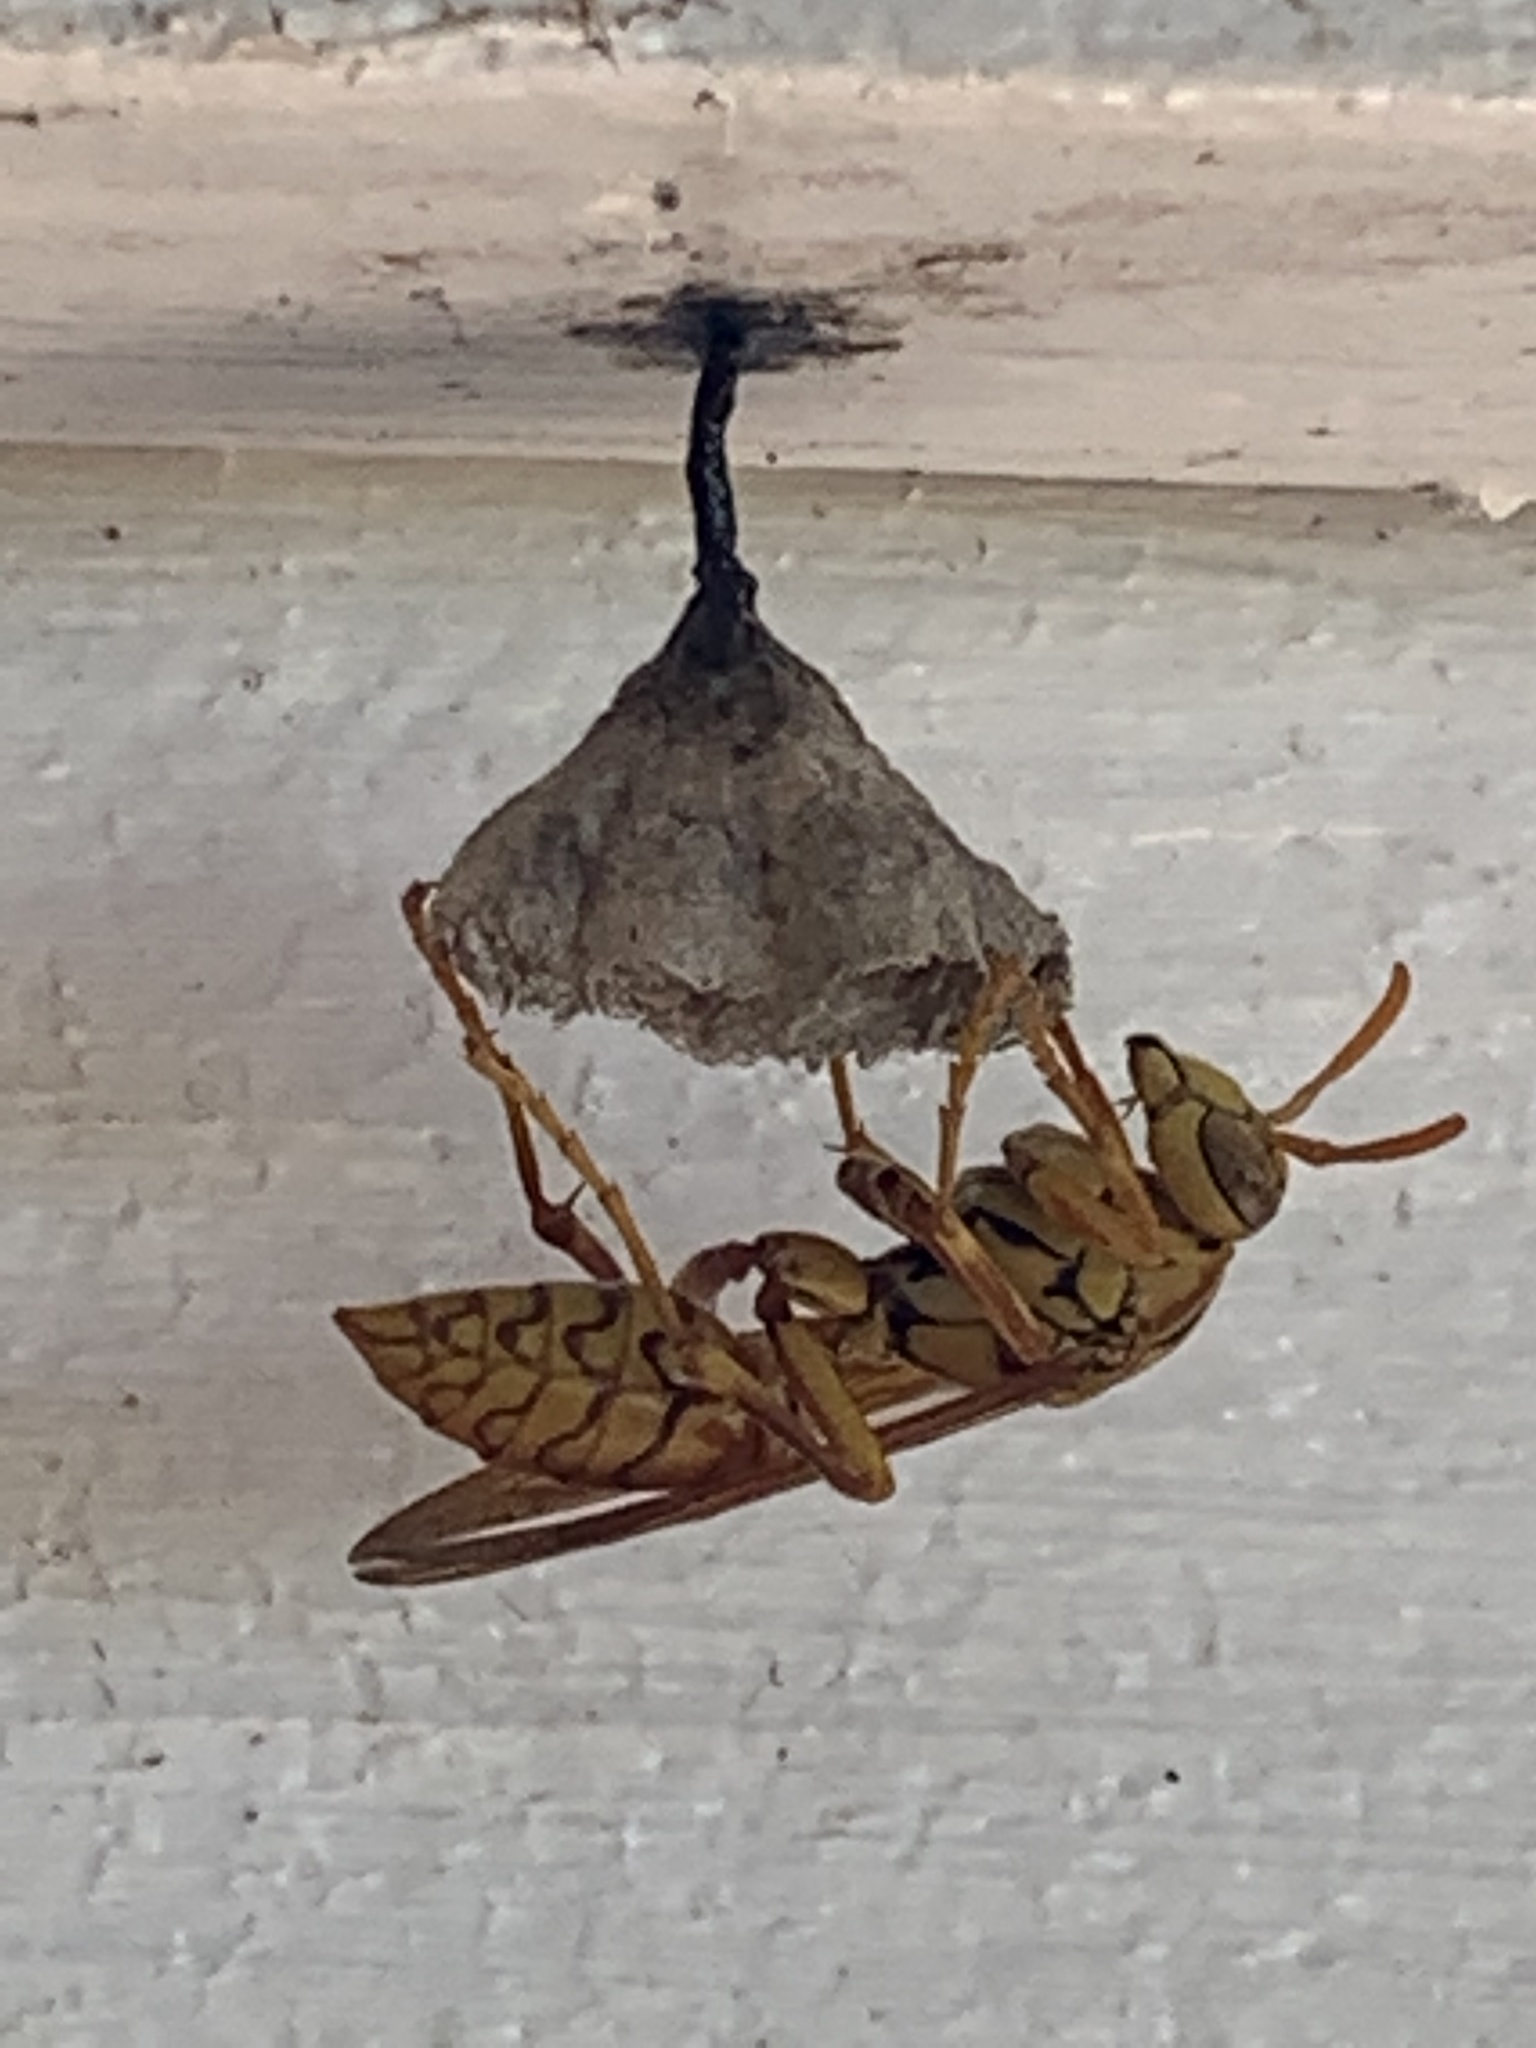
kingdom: Animalia
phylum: Arthropoda
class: Insecta
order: Hymenoptera
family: Eumenidae
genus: Polistes
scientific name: Polistes olivaceus
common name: Paper wasp
